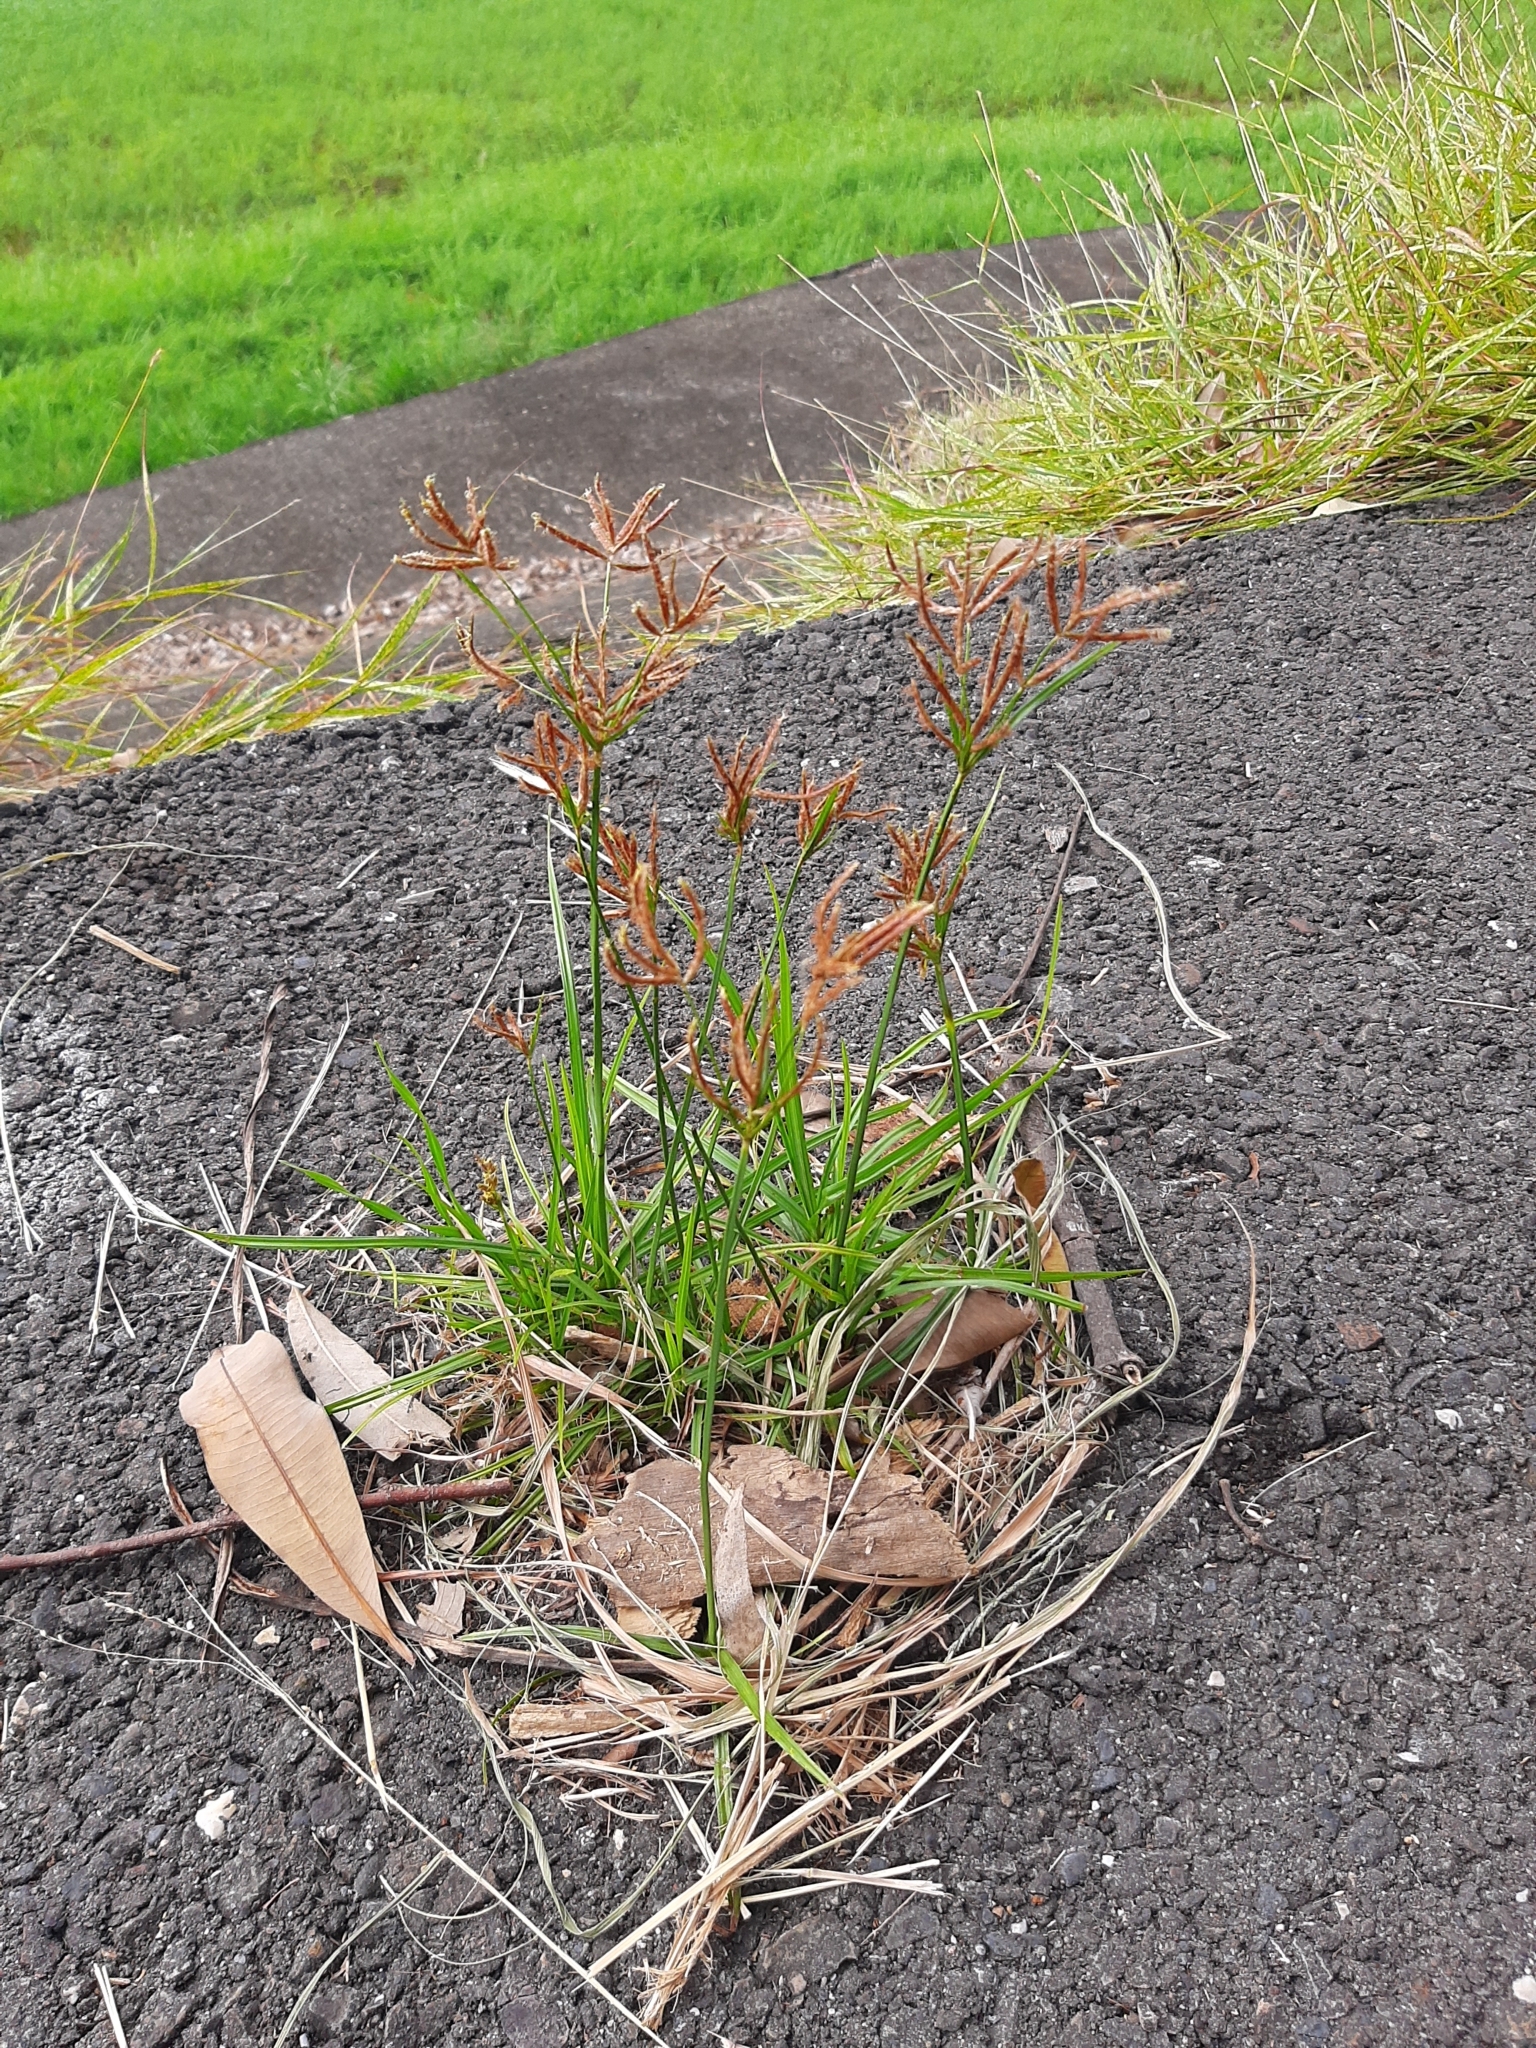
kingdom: Plantae
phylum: Tracheophyta
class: Liliopsida
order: Poales
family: Cyperaceae
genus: Cyperus
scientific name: Cyperus rotundus
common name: Nutgrass
